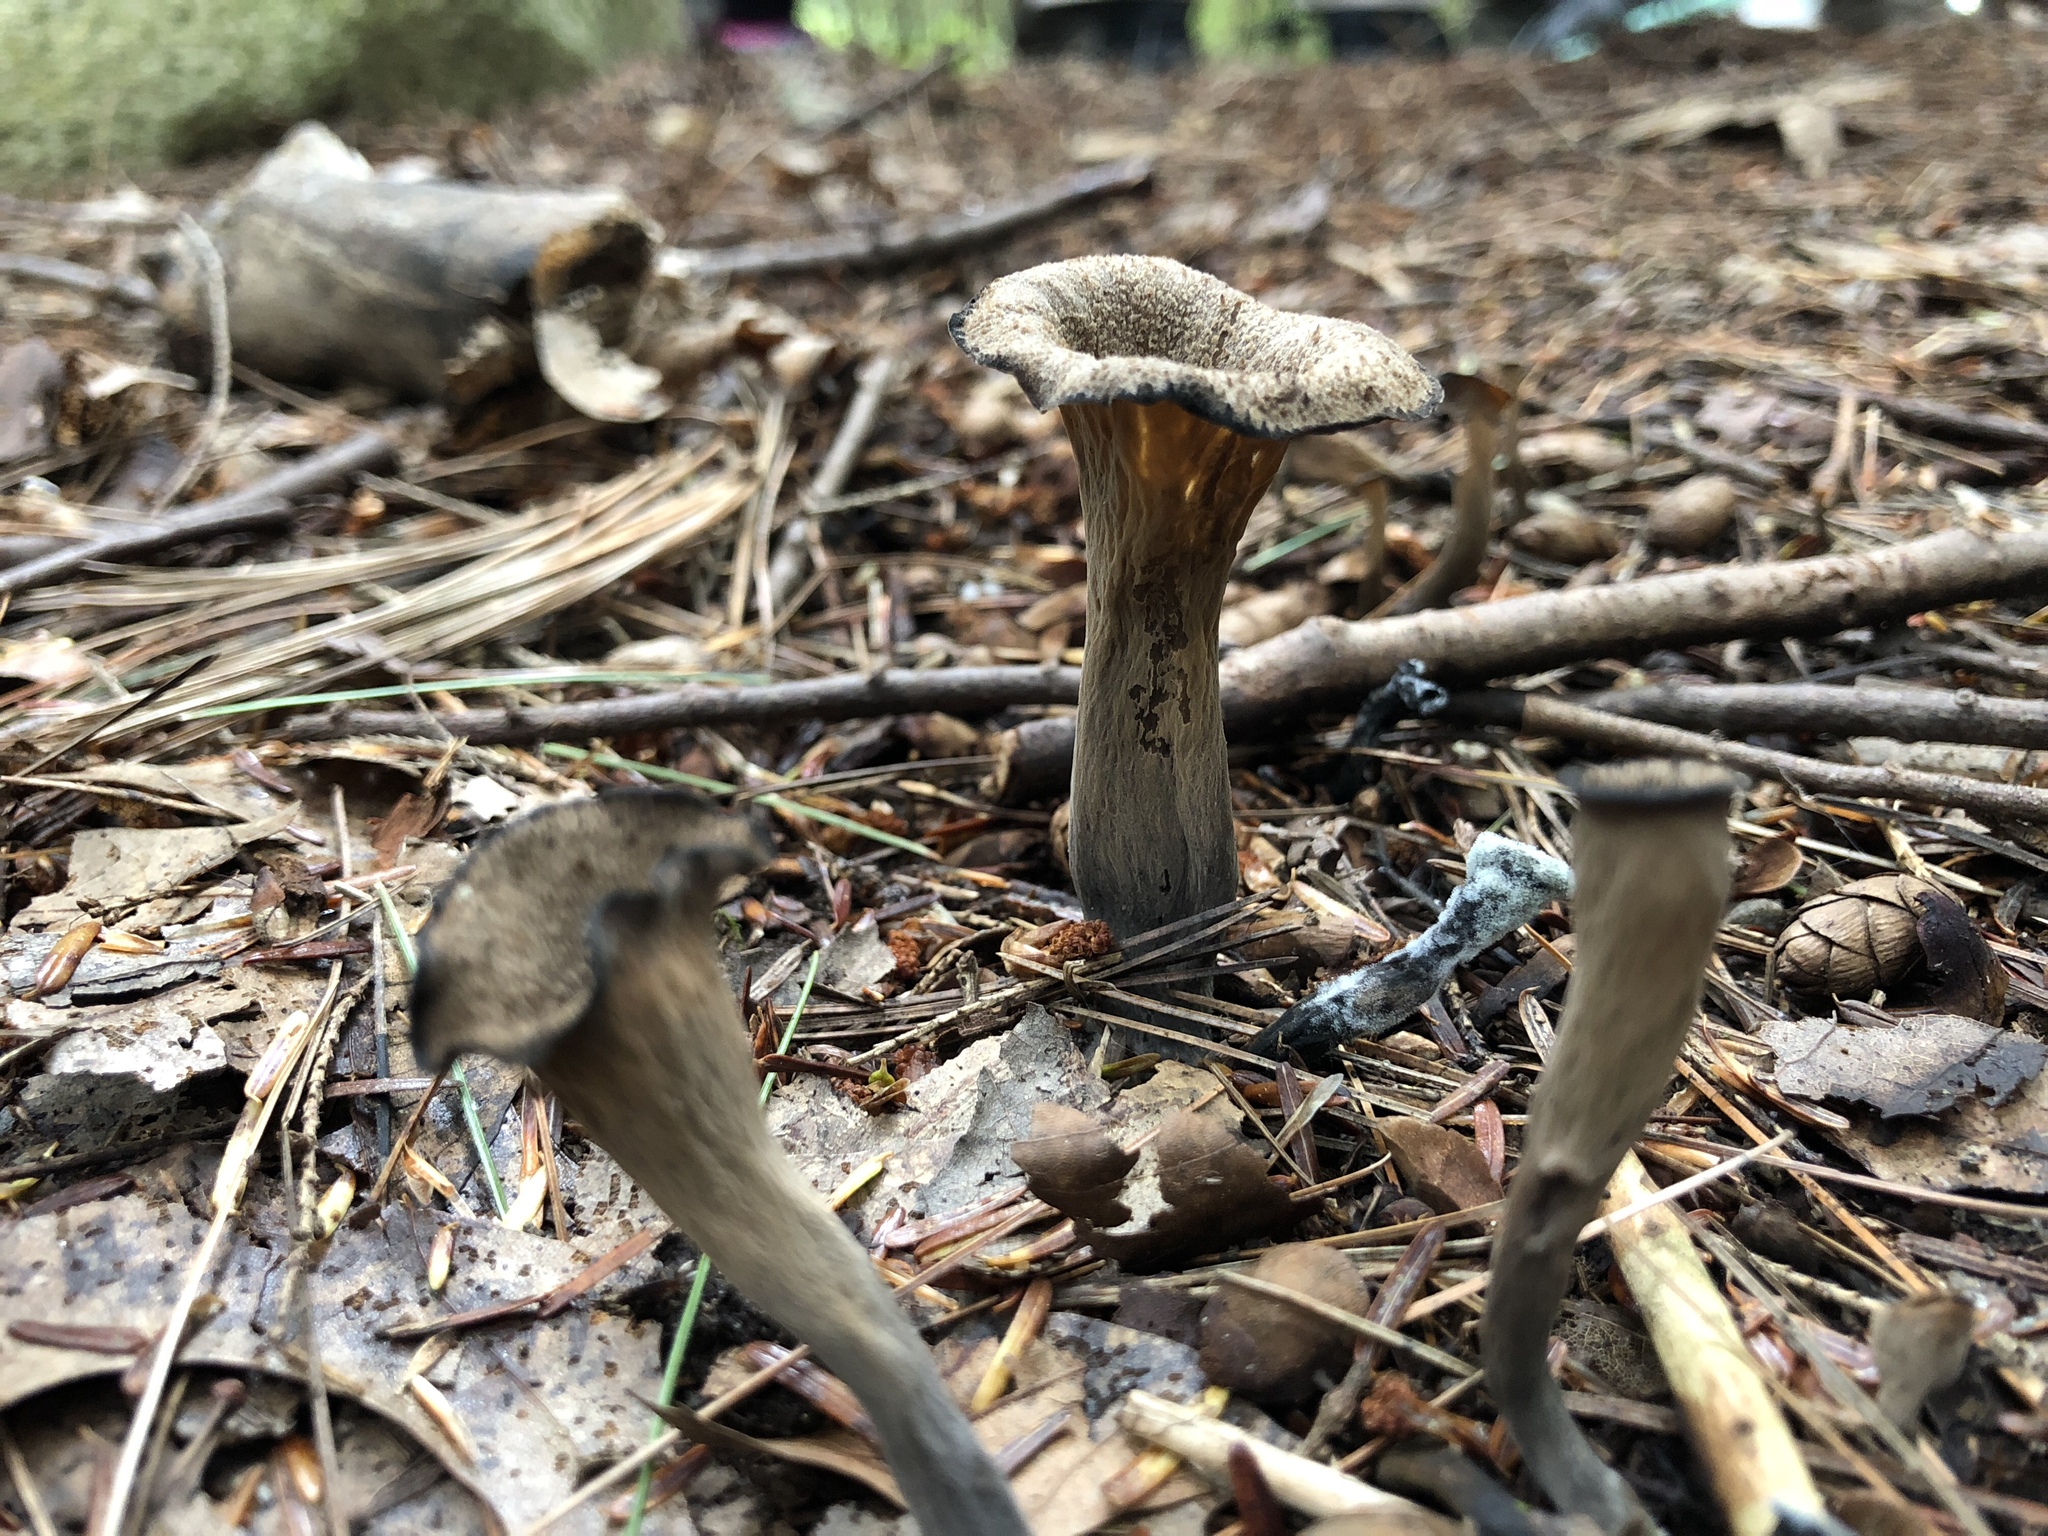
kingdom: Fungi
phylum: Basidiomycota
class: Agaricomycetes
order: Cantharellales
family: Hydnaceae
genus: Craterellus
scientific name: Craterellus cornucopioides
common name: Horn of plenty
